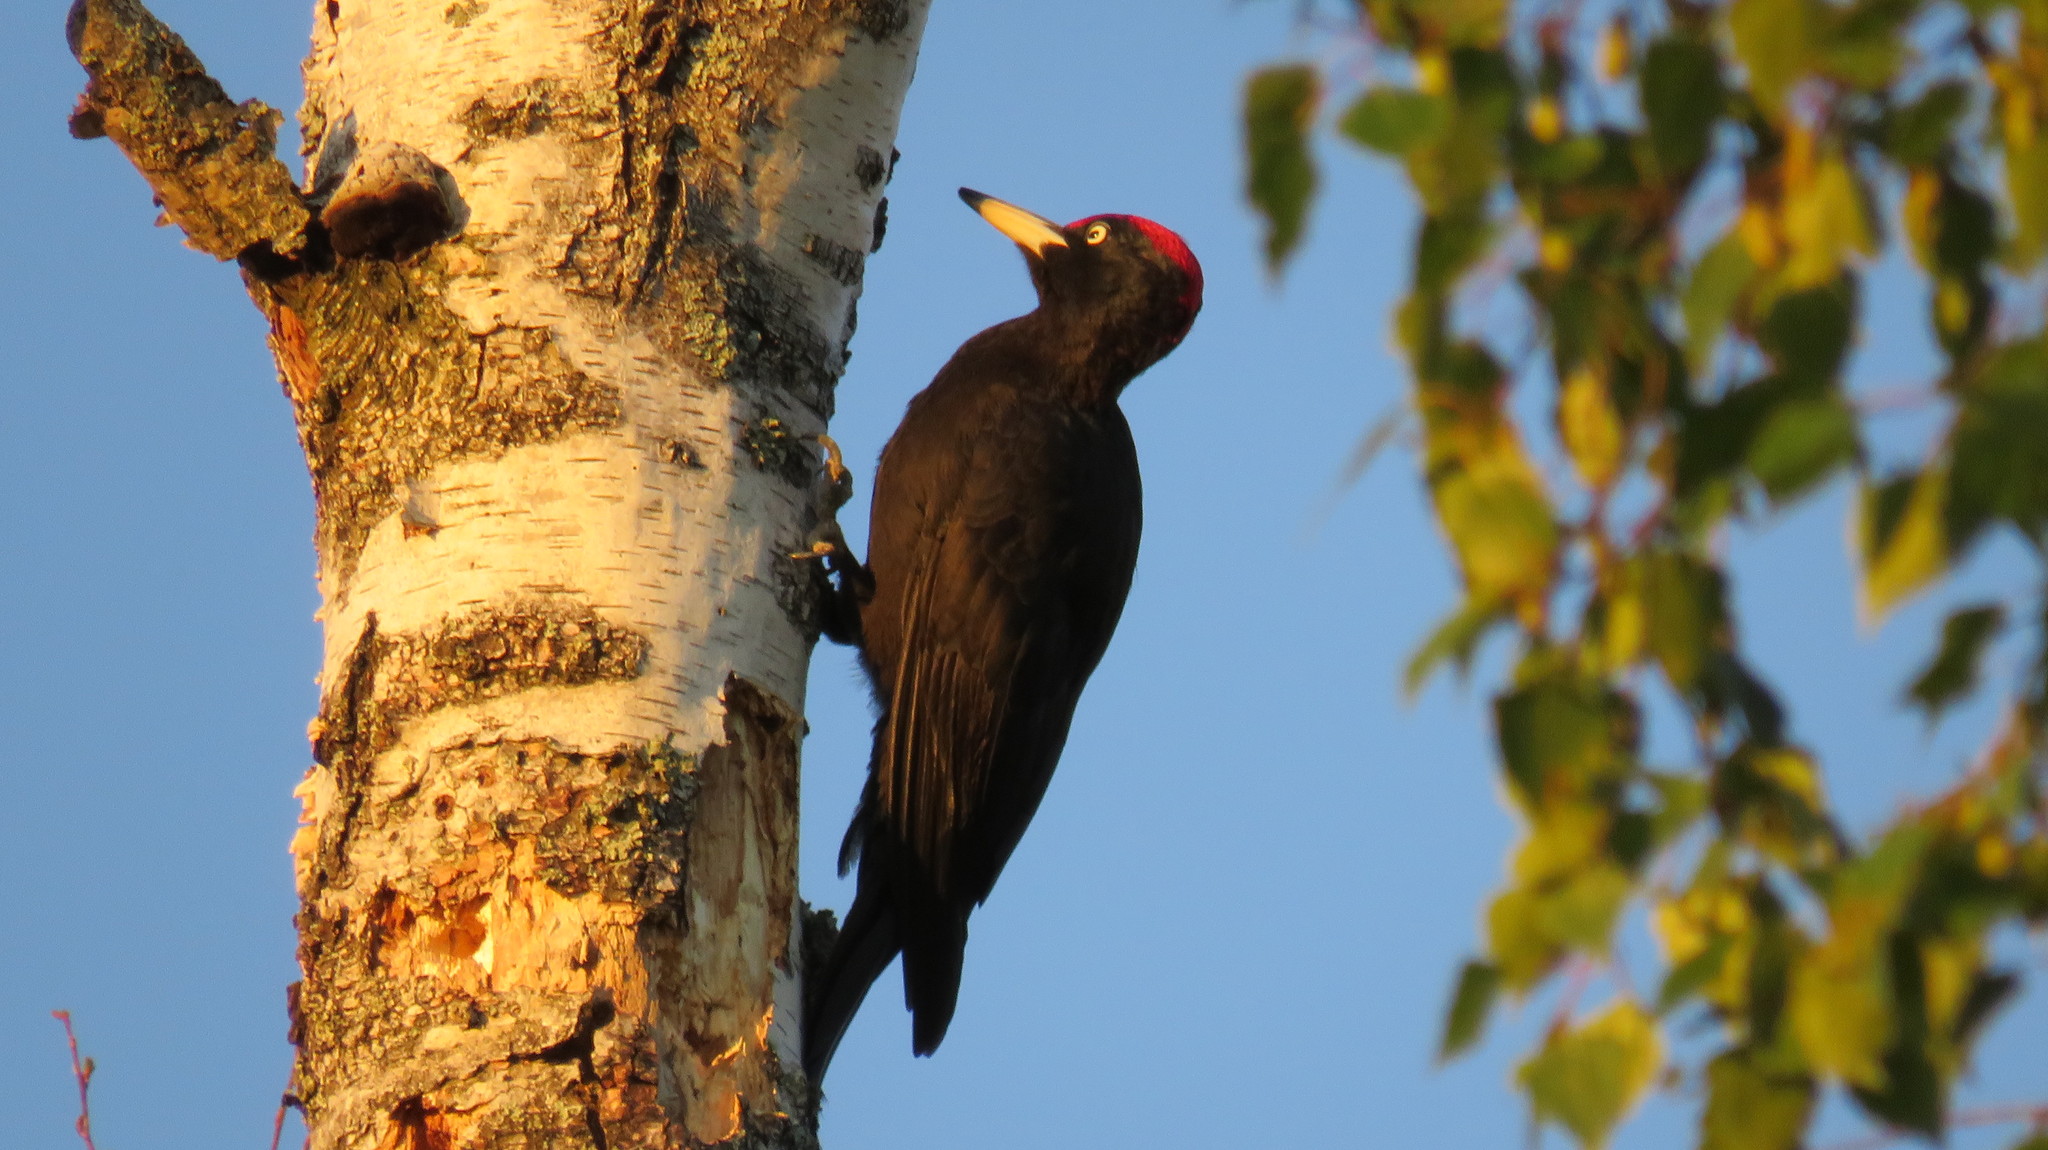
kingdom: Animalia
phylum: Chordata
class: Aves
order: Piciformes
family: Picidae
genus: Dryocopus
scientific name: Dryocopus martius
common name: Black woodpecker
